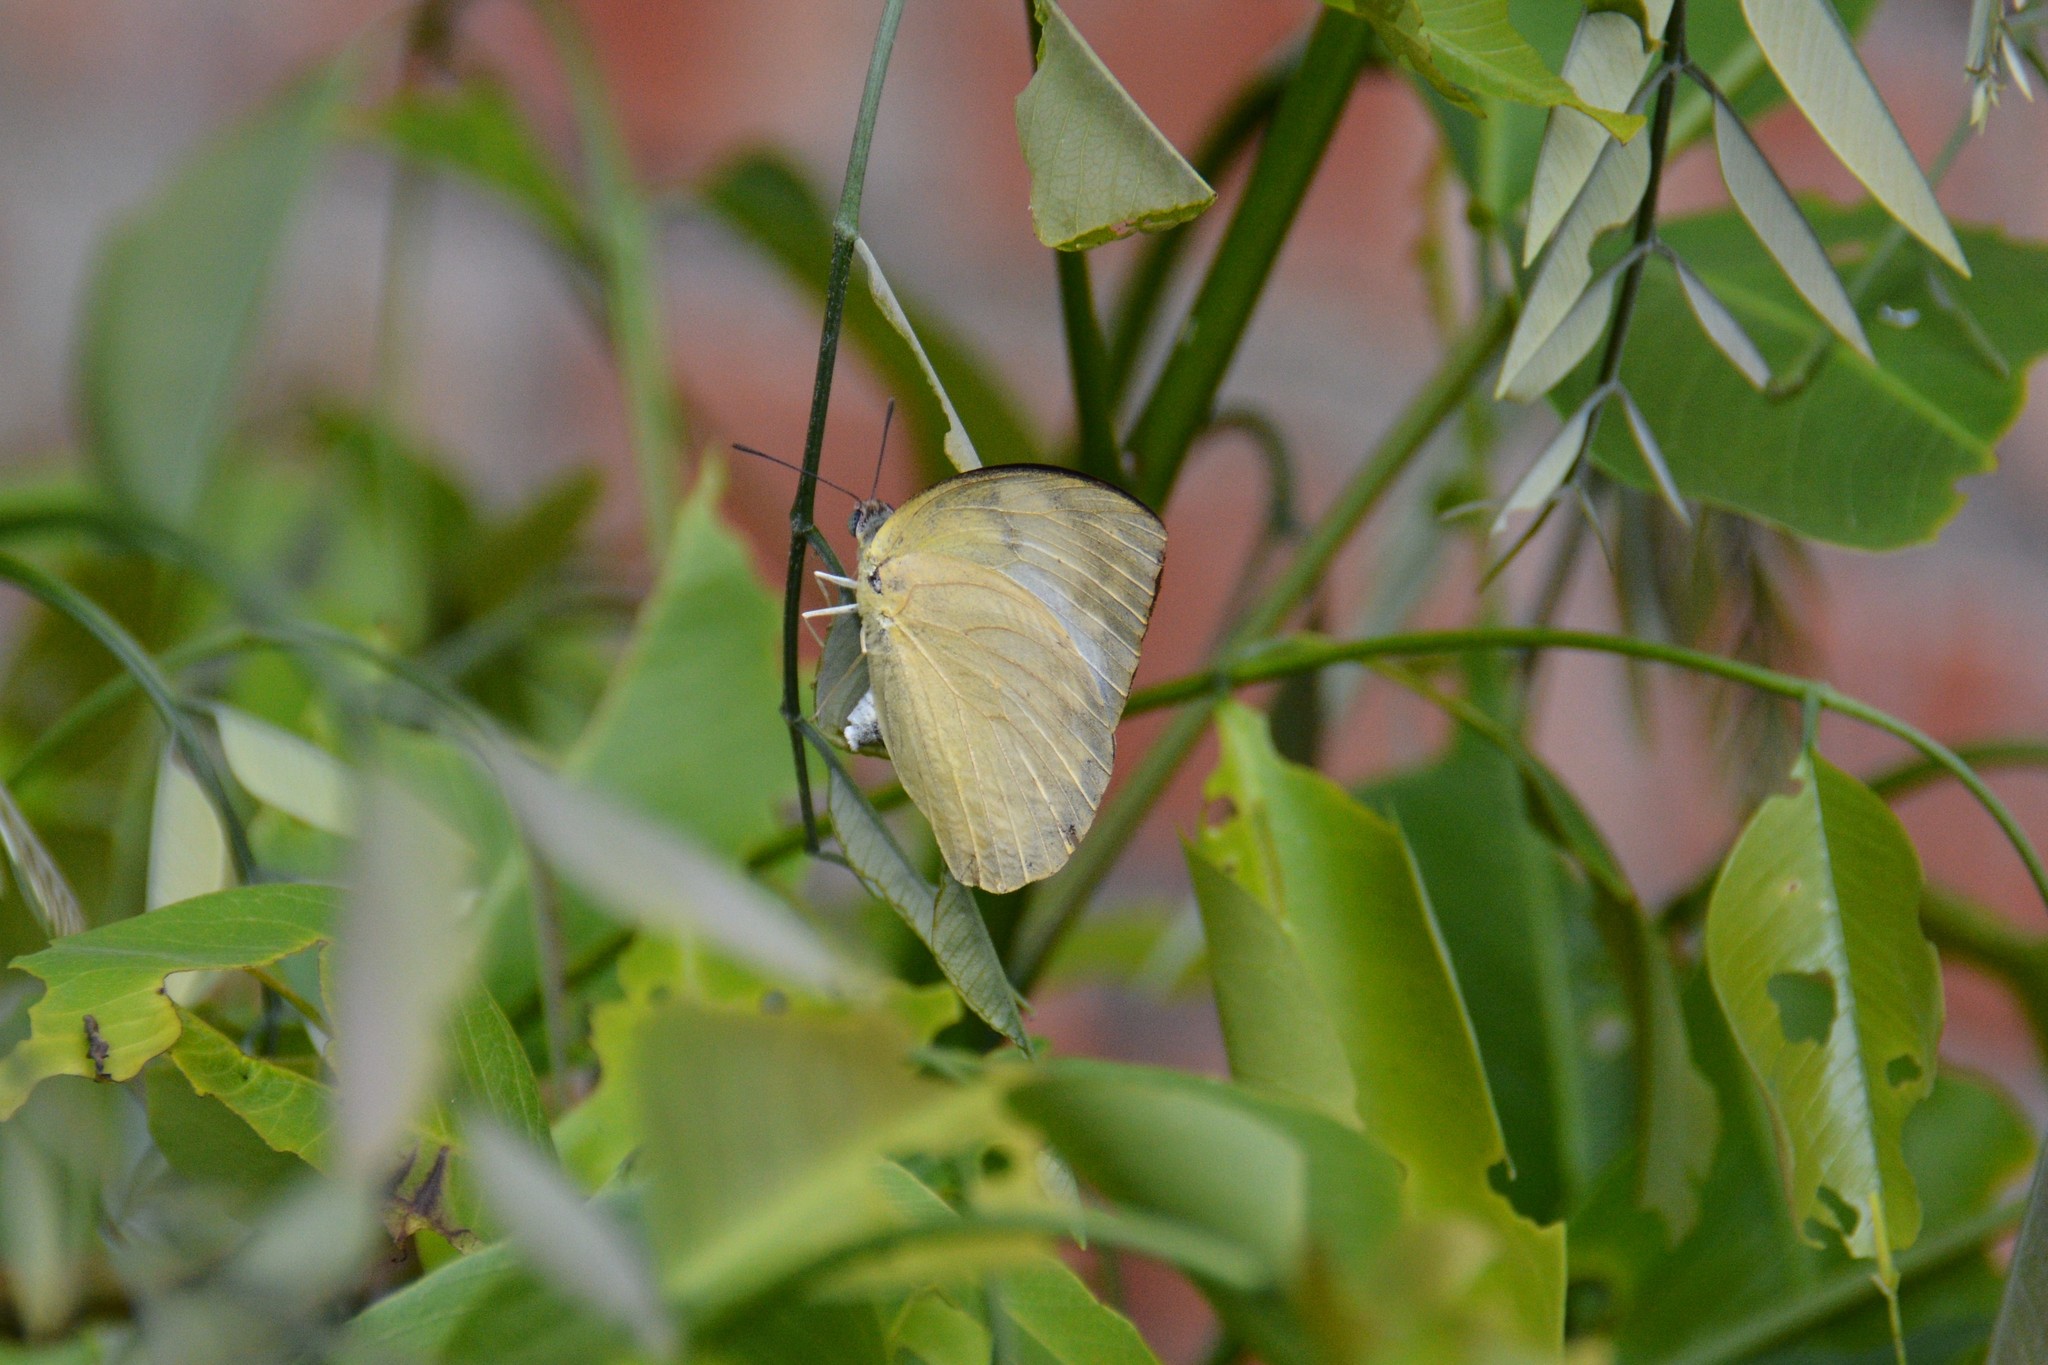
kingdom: Animalia
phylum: Arthropoda
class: Insecta
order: Lepidoptera
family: Pieridae
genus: Catopsilia
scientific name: Catopsilia pomona
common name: Common emigrant
